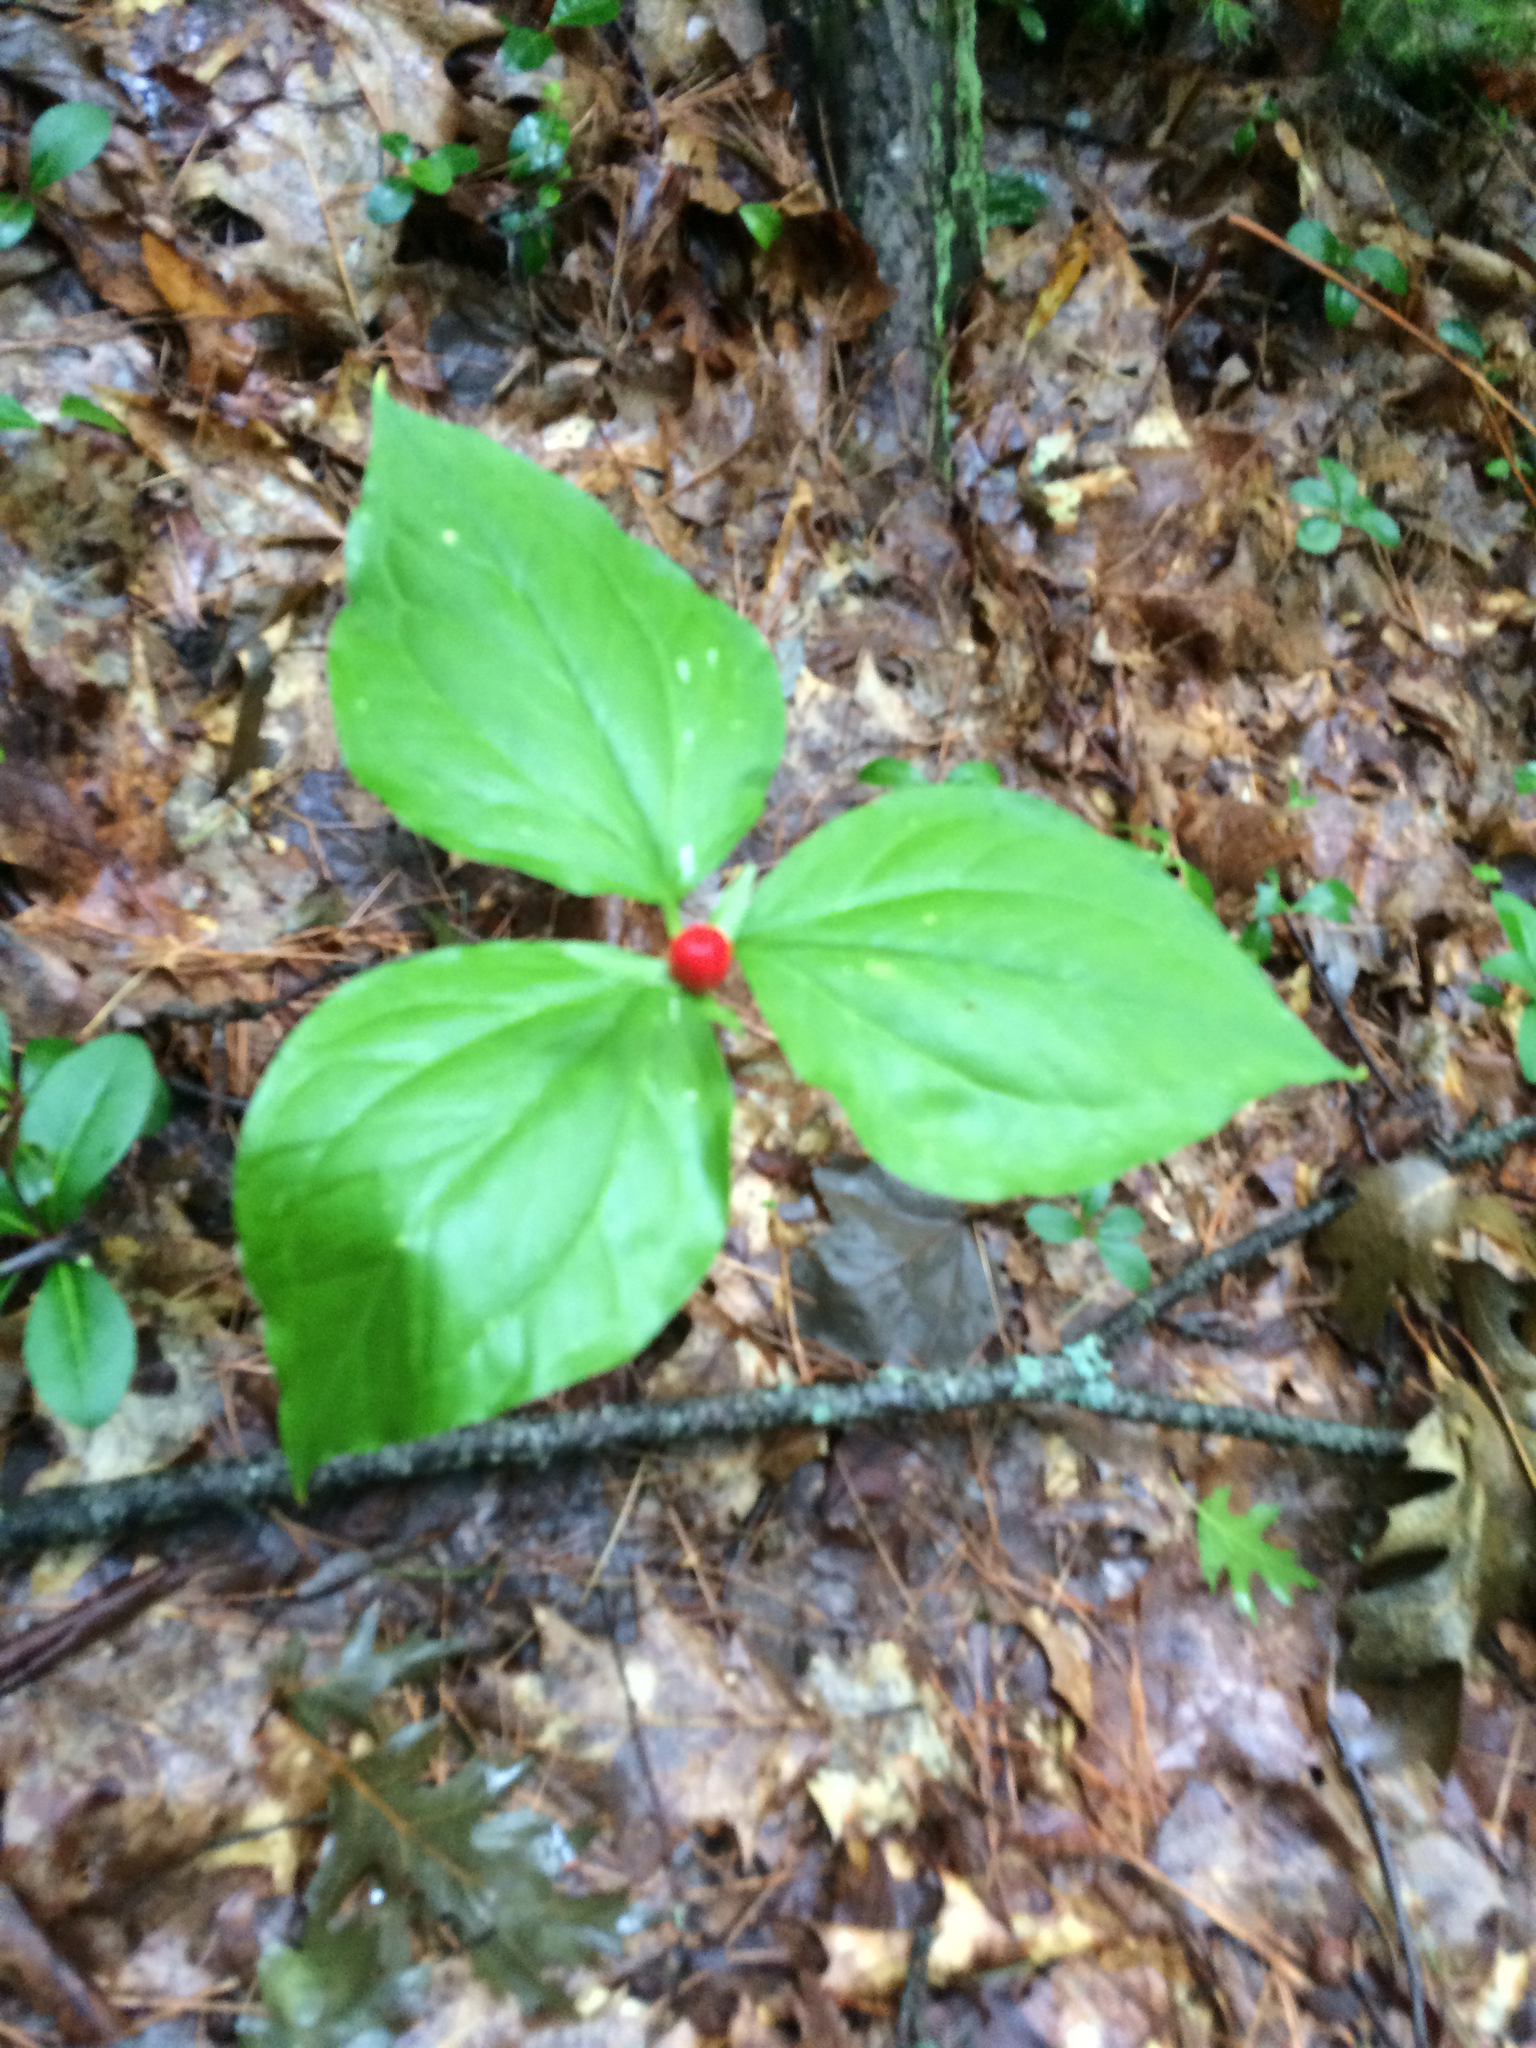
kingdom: Plantae
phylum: Tracheophyta
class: Liliopsida
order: Liliales
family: Melanthiaceae
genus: Trillium
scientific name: Trillium undulatum
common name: Paint trillium
